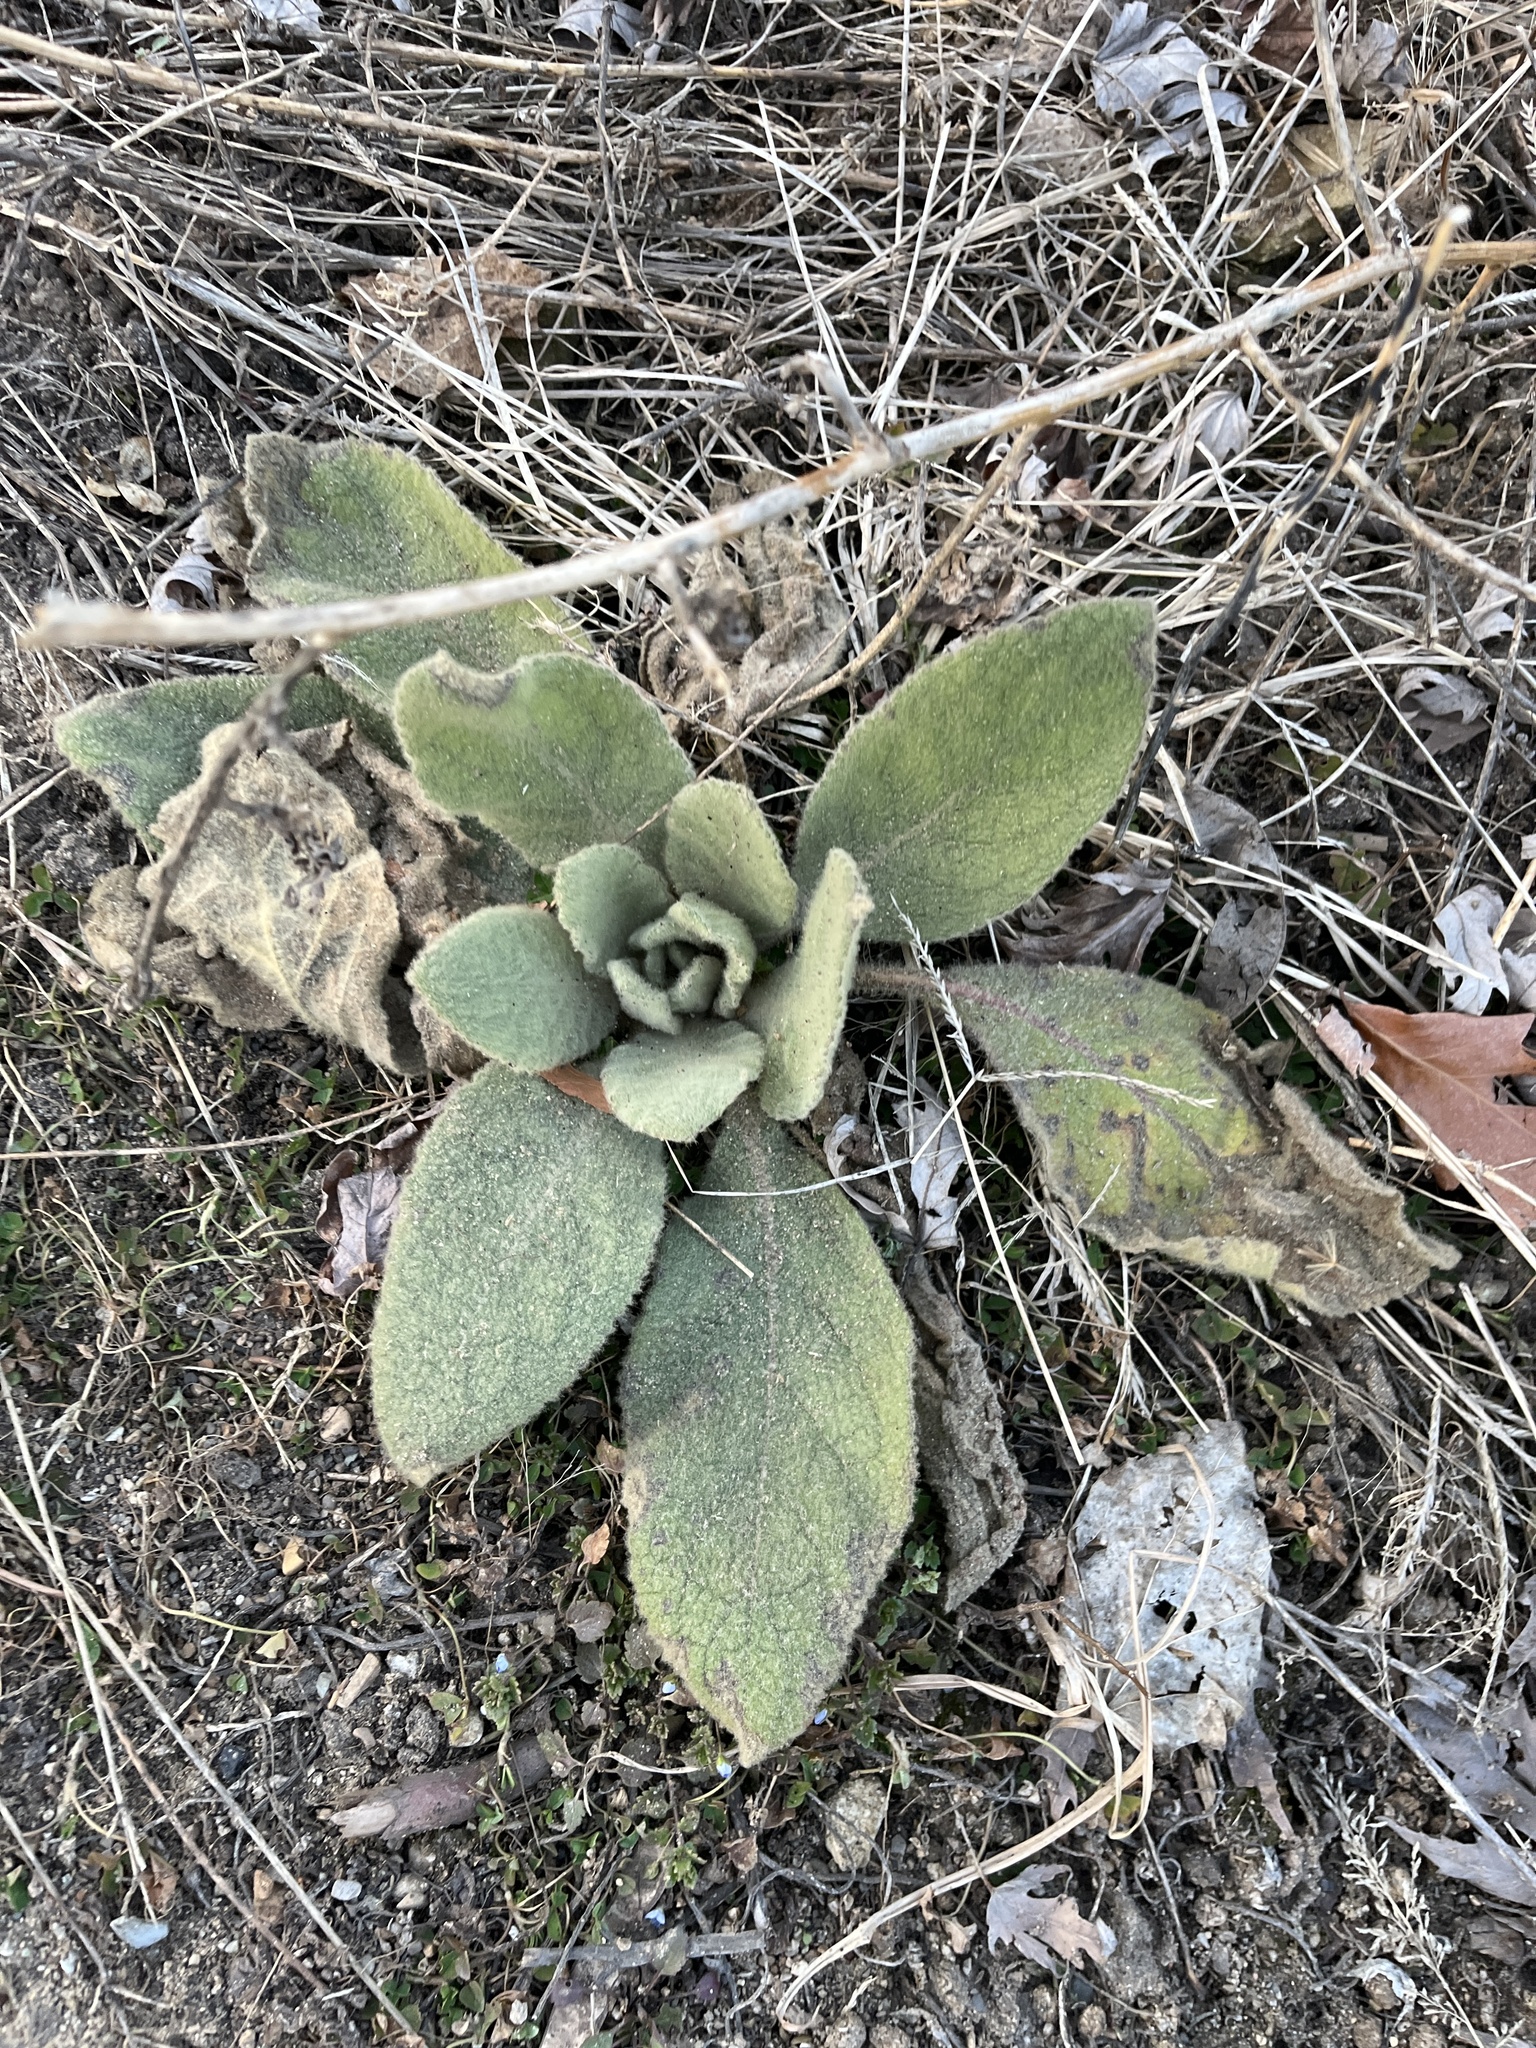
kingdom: Plantae
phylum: Tracheophyta
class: Magnoliopsida
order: Lamiales
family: Scrophulariaceae
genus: Verbascum
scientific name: Verbascum thapsus
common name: Common mullein
